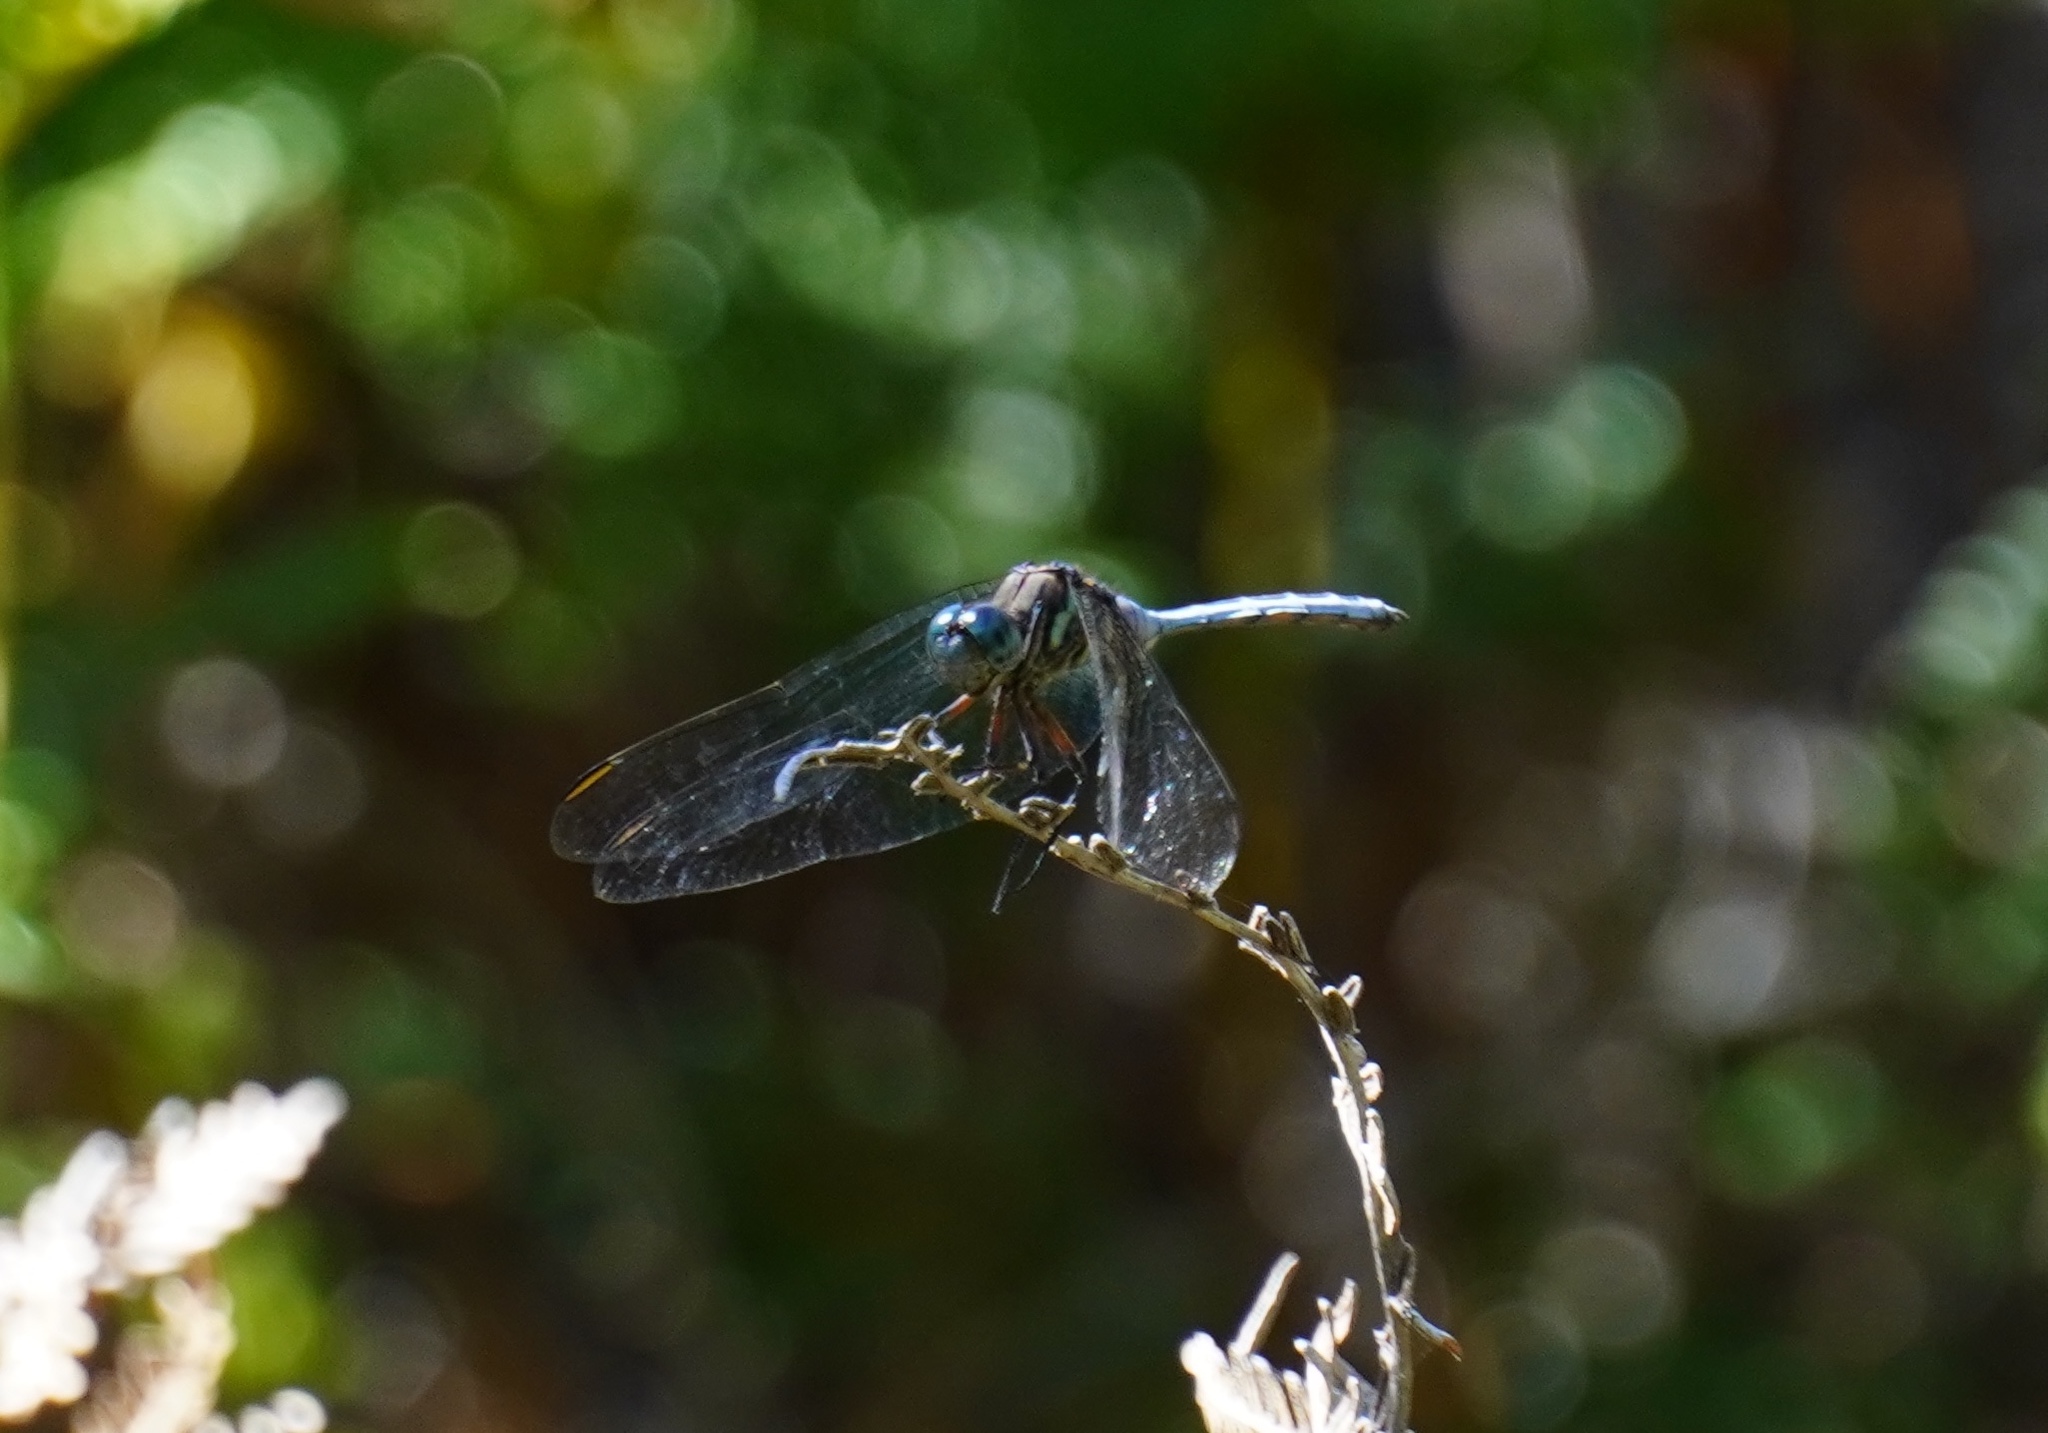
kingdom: Animalia
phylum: Arthropoda
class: Insecta
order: Odonata
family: Libellulidae
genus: Orthetrum
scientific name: Orthetrum julia
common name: Julia skimmer
